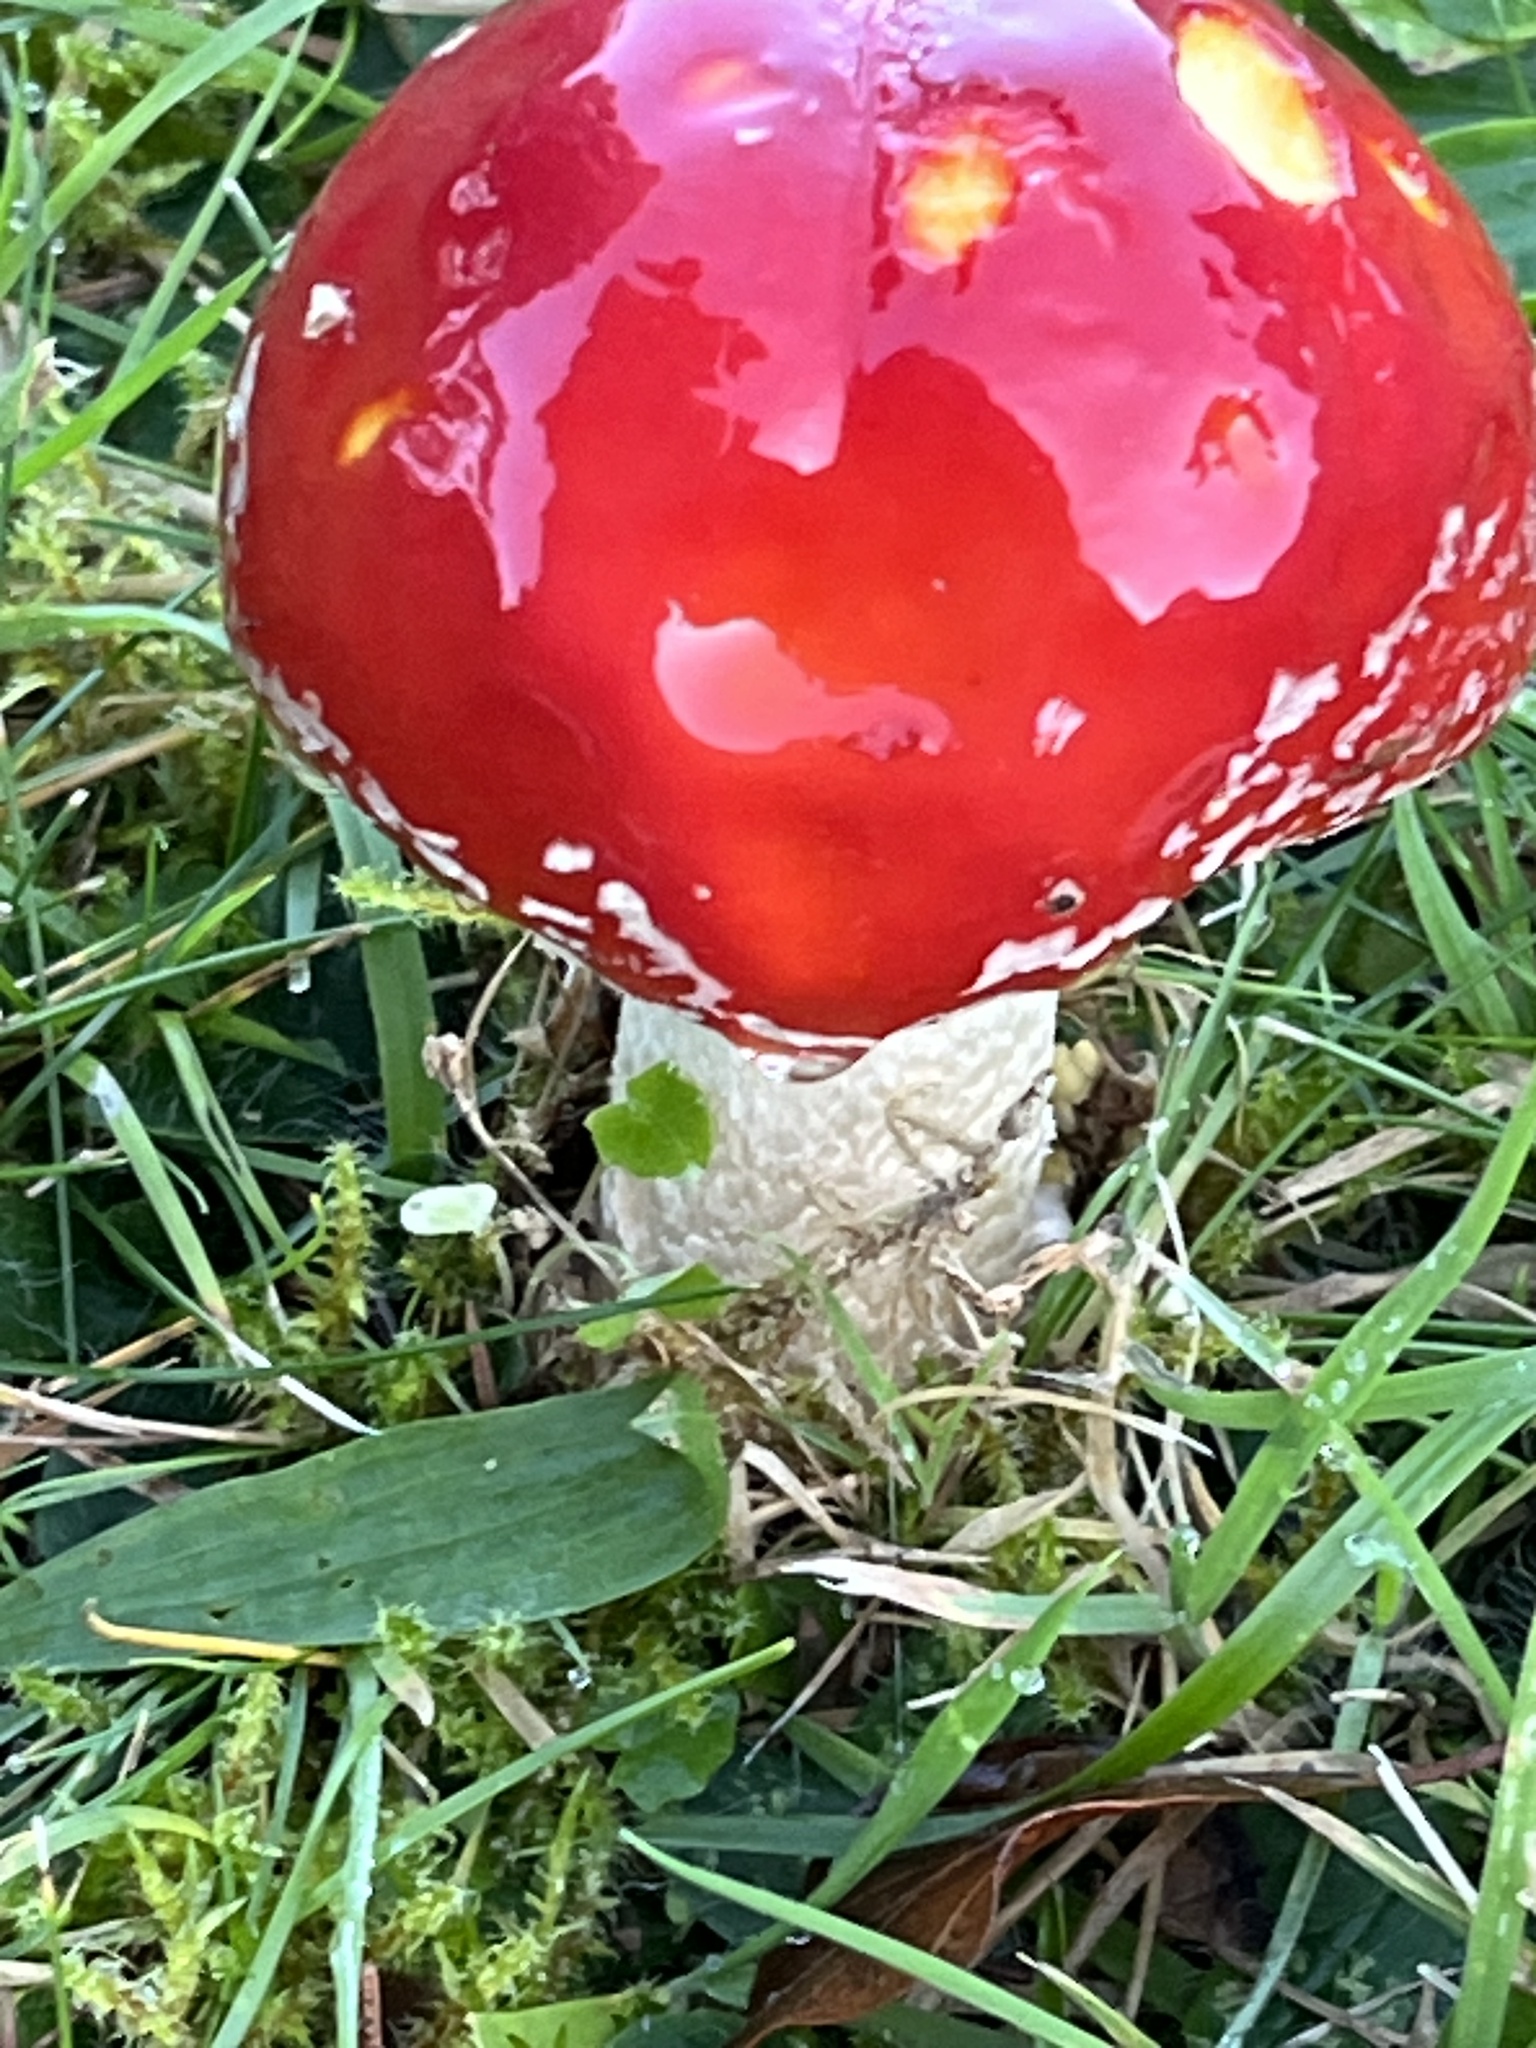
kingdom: Fungi
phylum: Basidiomycota
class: Agaricomycetes
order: Agaricales
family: Amanitaceae
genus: Amanita
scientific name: Amanita muscaria
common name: Fly agaric
